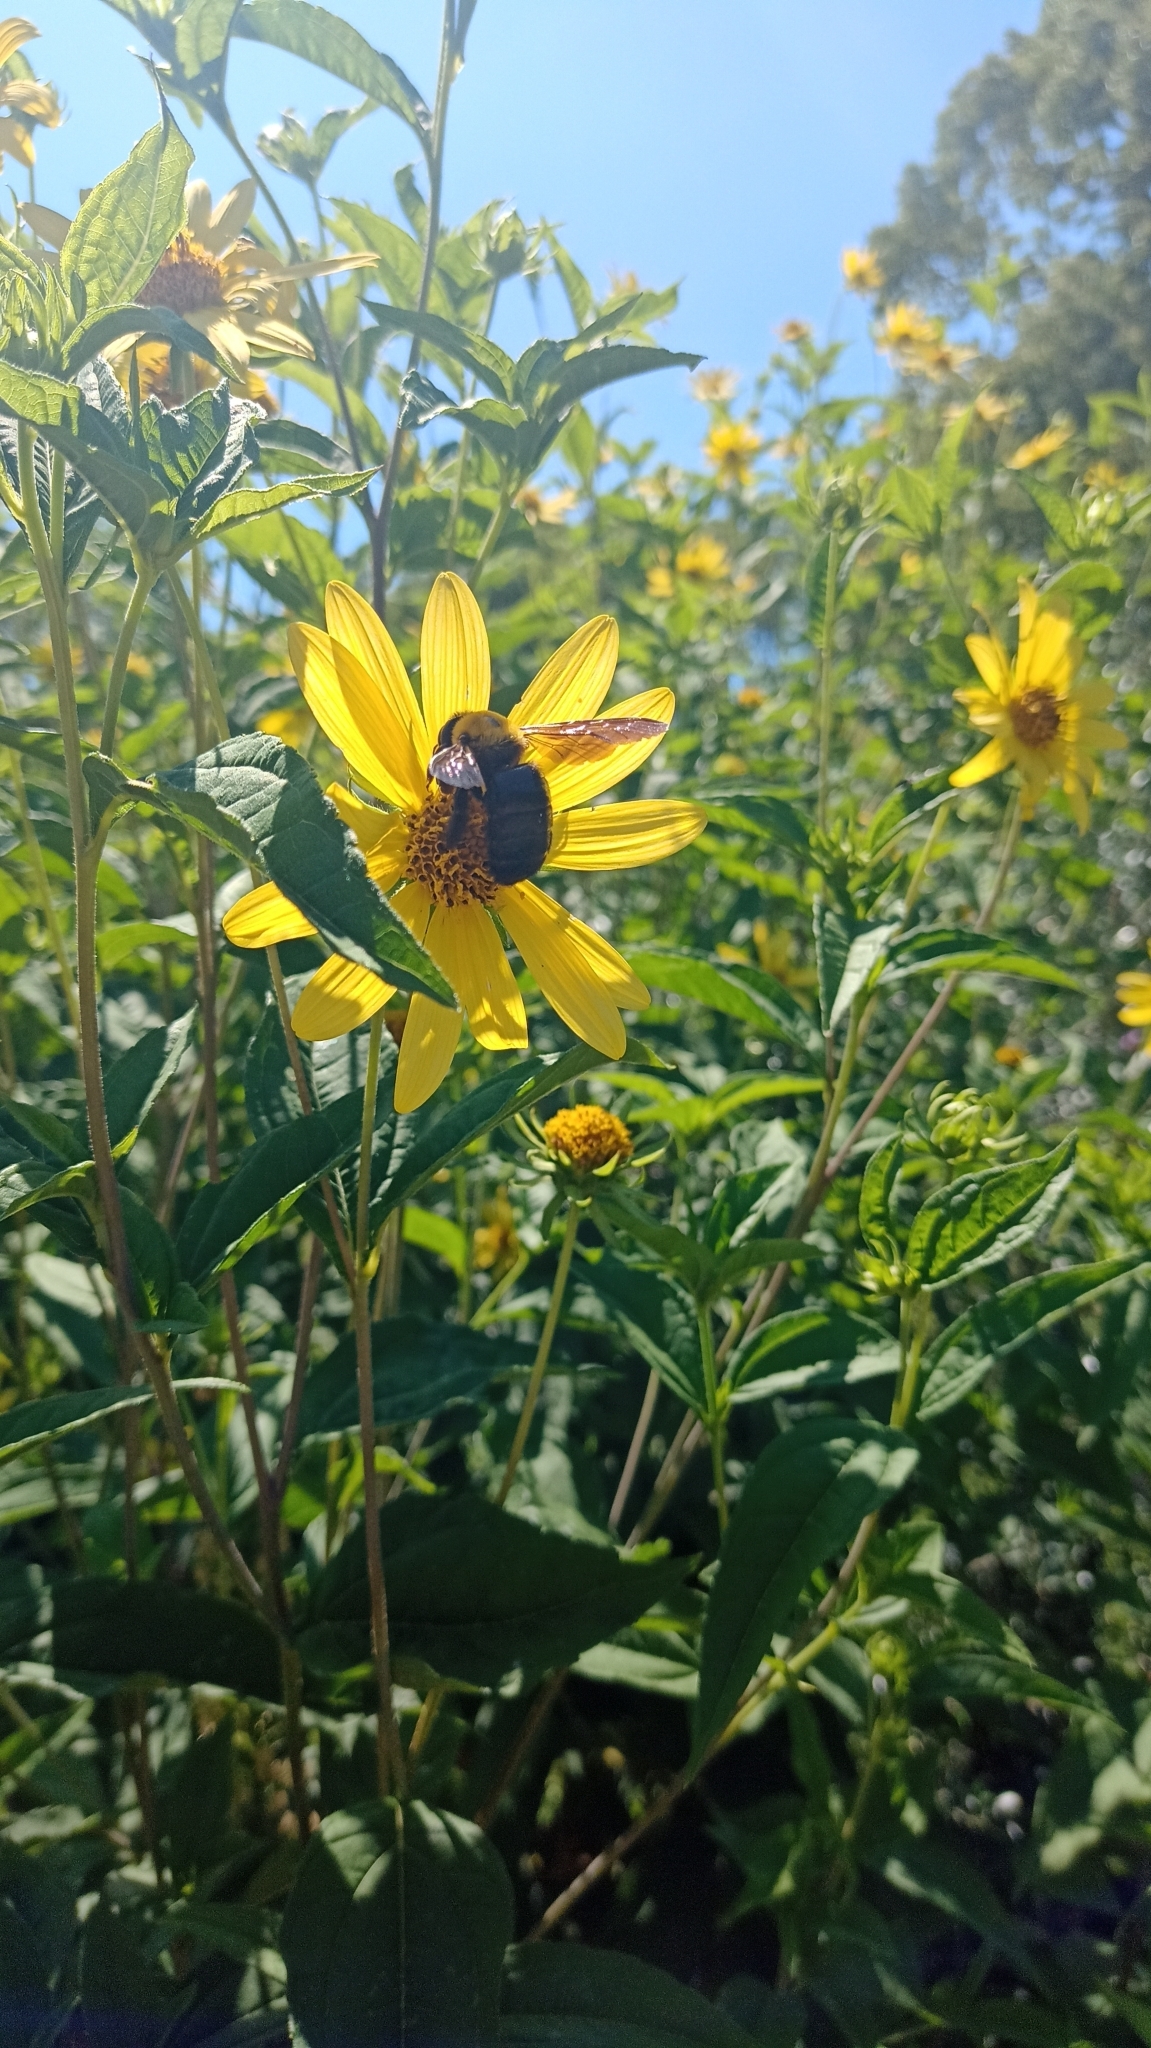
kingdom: Animalia
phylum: Arthropoda
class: Insecta
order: Hymenoptera
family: Apidae
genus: Xylocopa
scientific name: Xylocopa appendiculata
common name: Japanese carpenter bee
